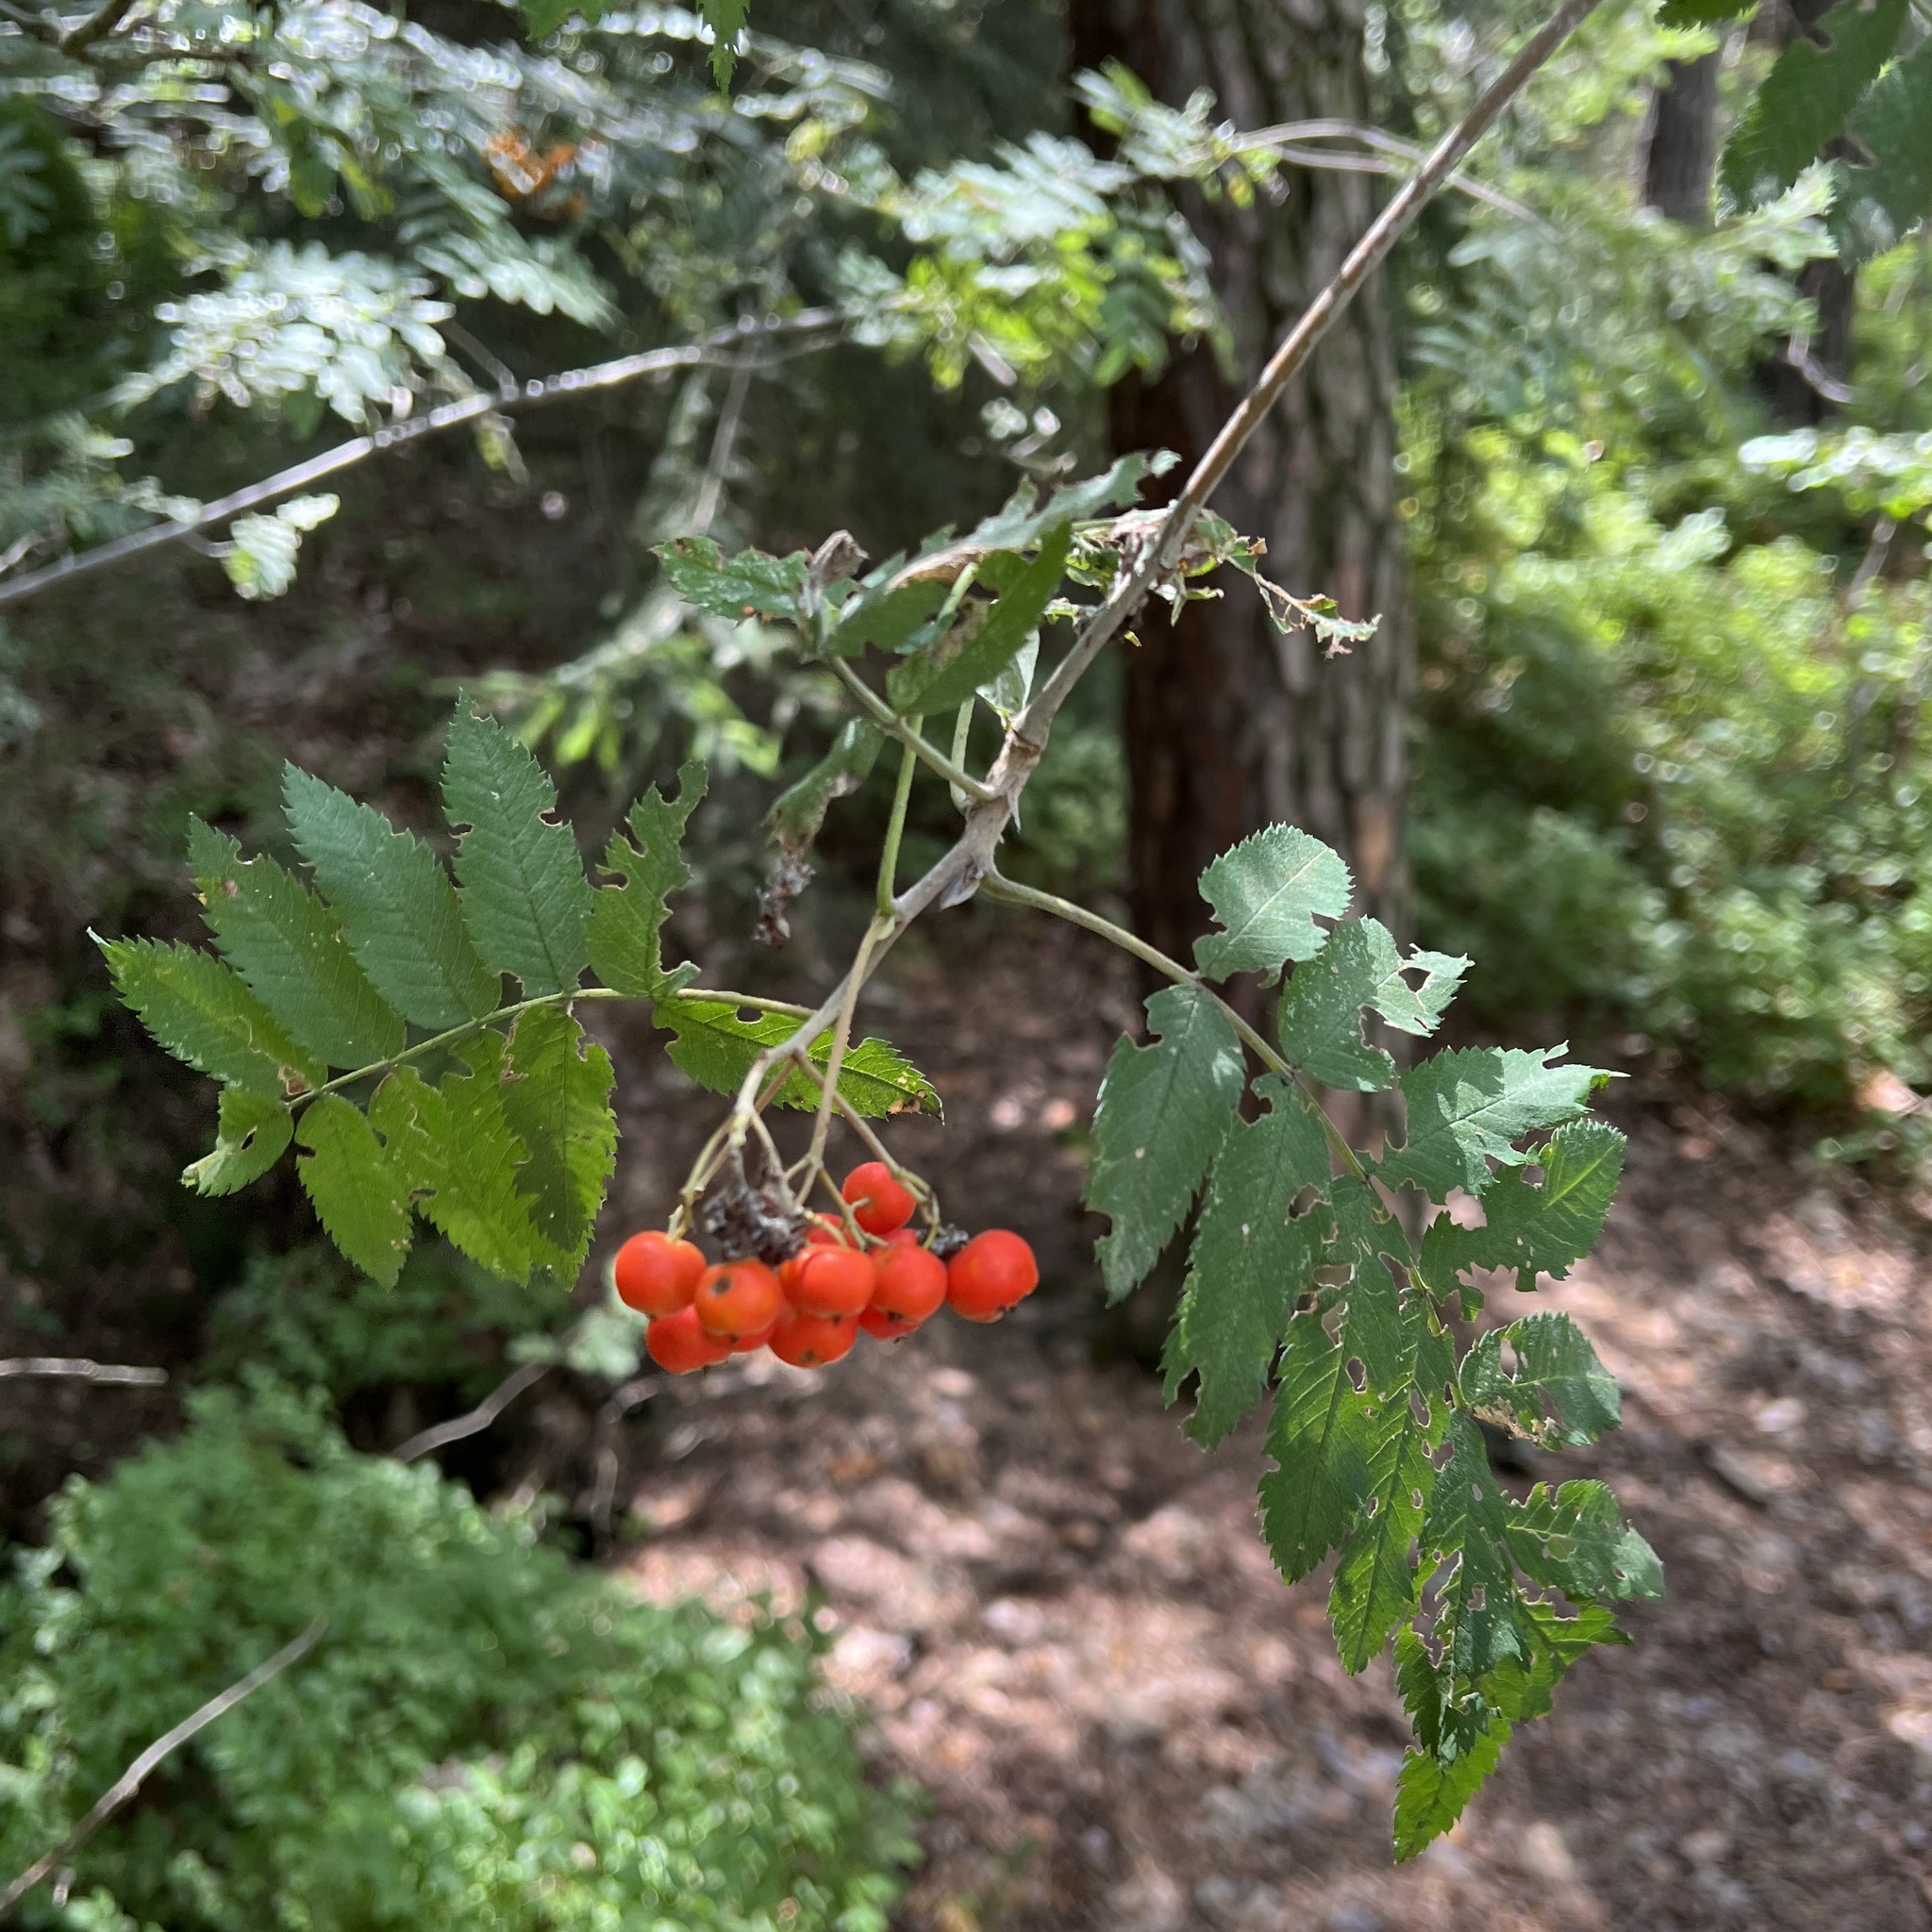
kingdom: Plantae
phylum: Tracheophyta
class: Magnoliopsida
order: Rosales
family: Rosaceae
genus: Sorbus
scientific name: Sorbus aucuparia
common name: Rowan
